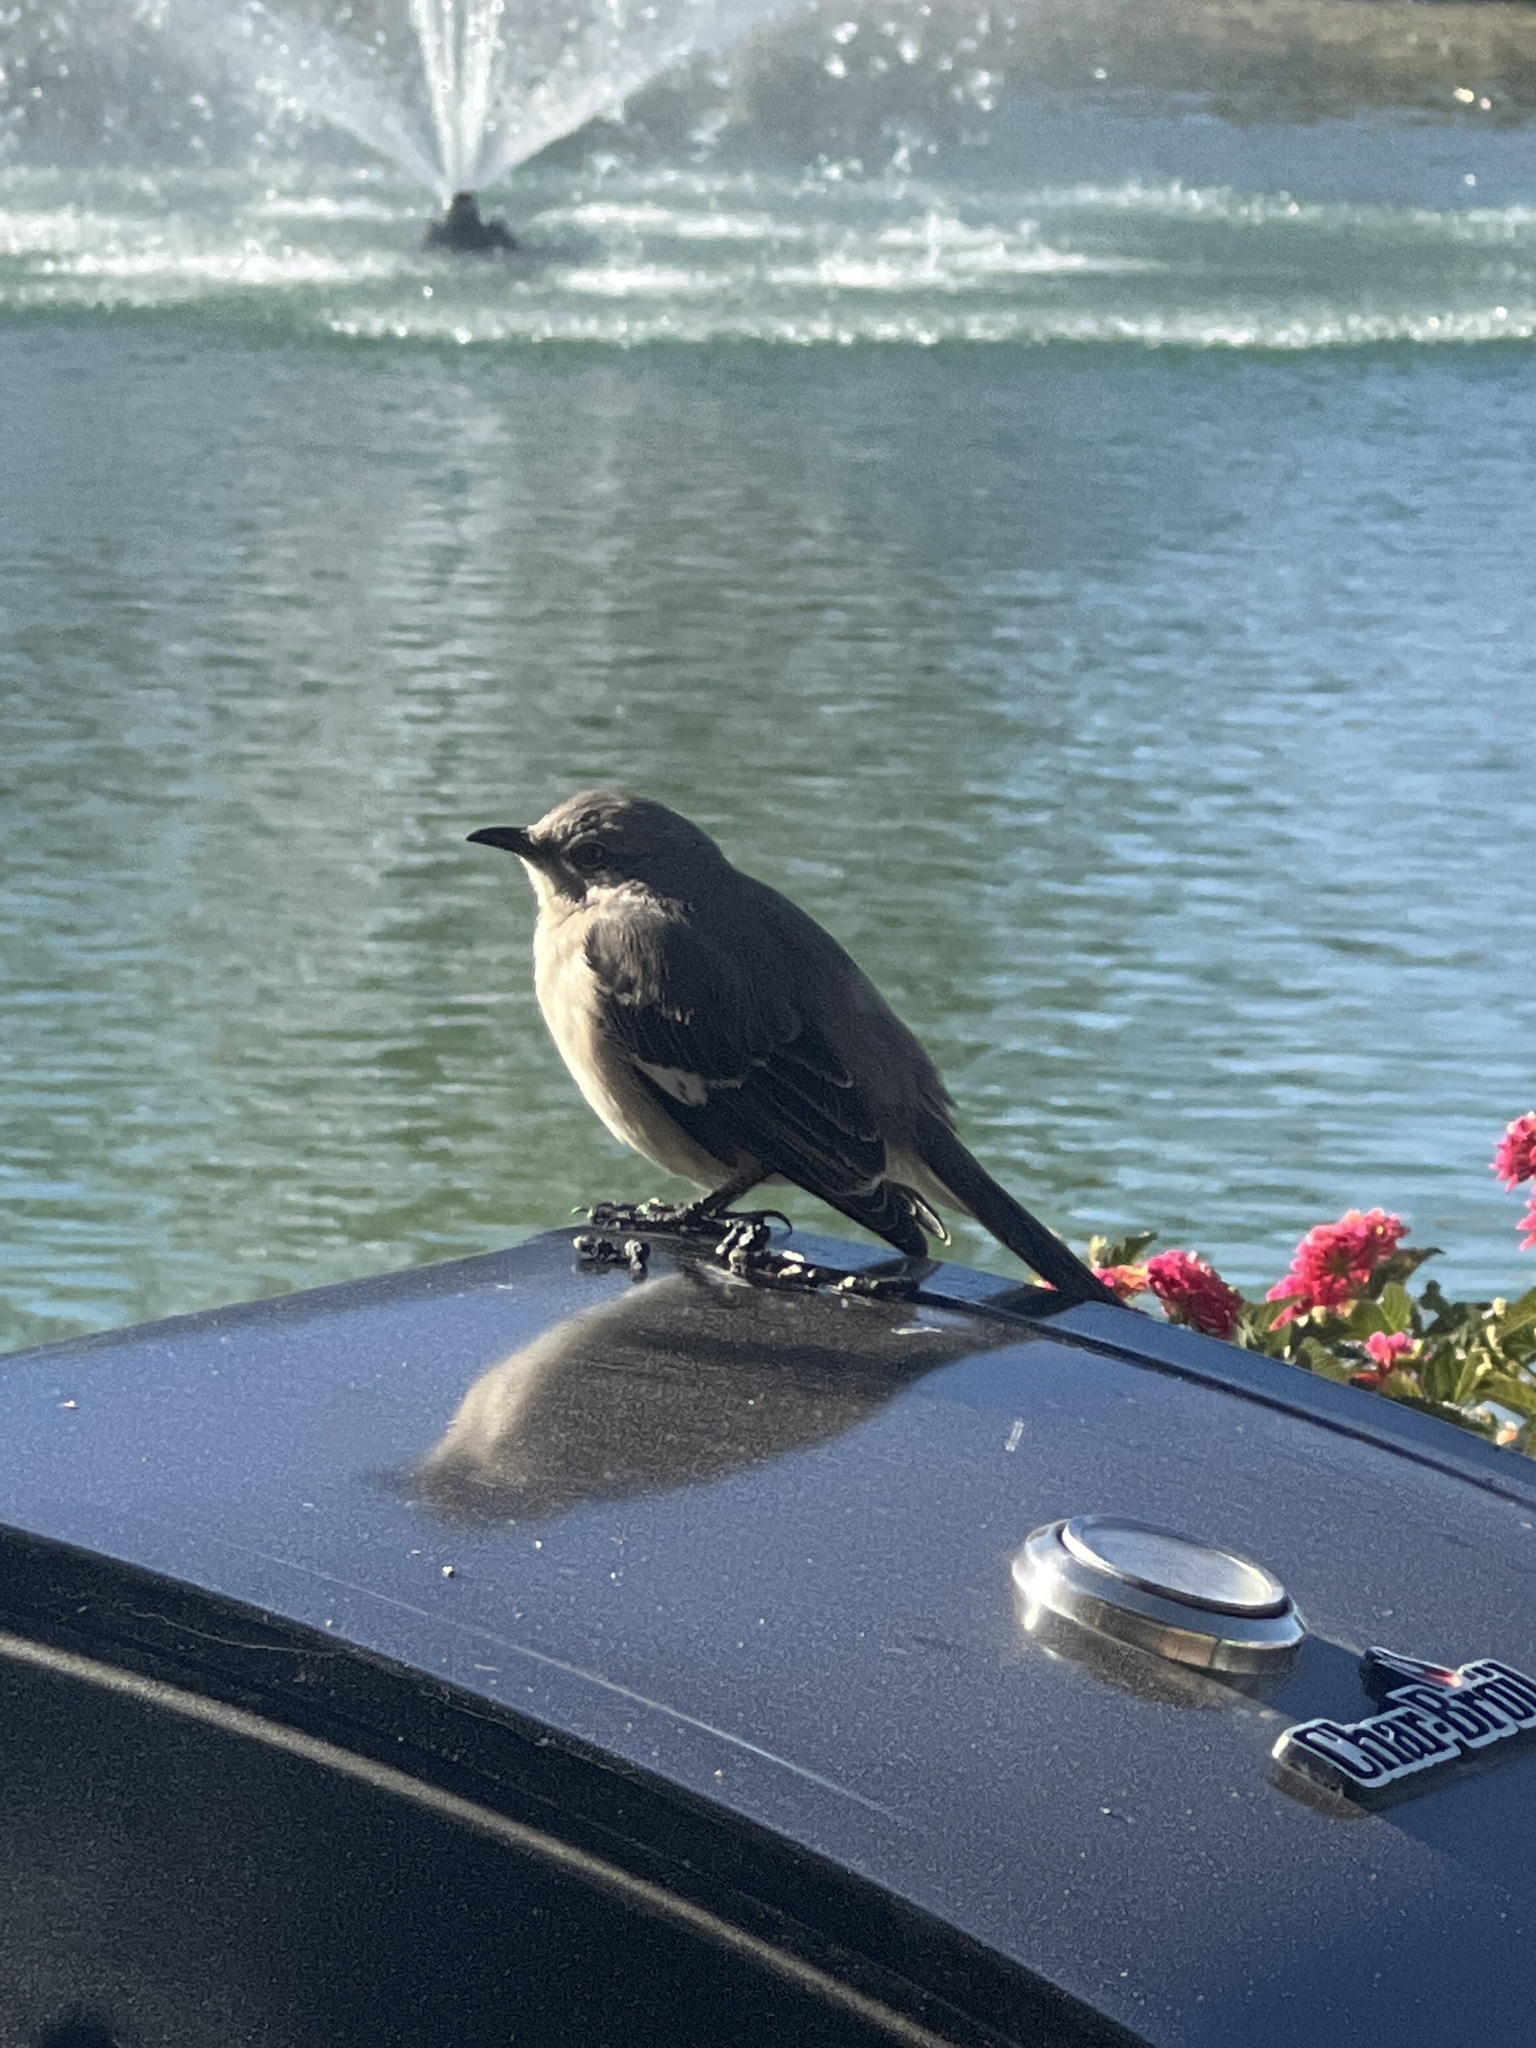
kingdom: Animalia
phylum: Chordata
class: Aves
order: Passeriformes
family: Mimidae
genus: Mimus
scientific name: Mimus polyglottos
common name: Northern mockingbird
